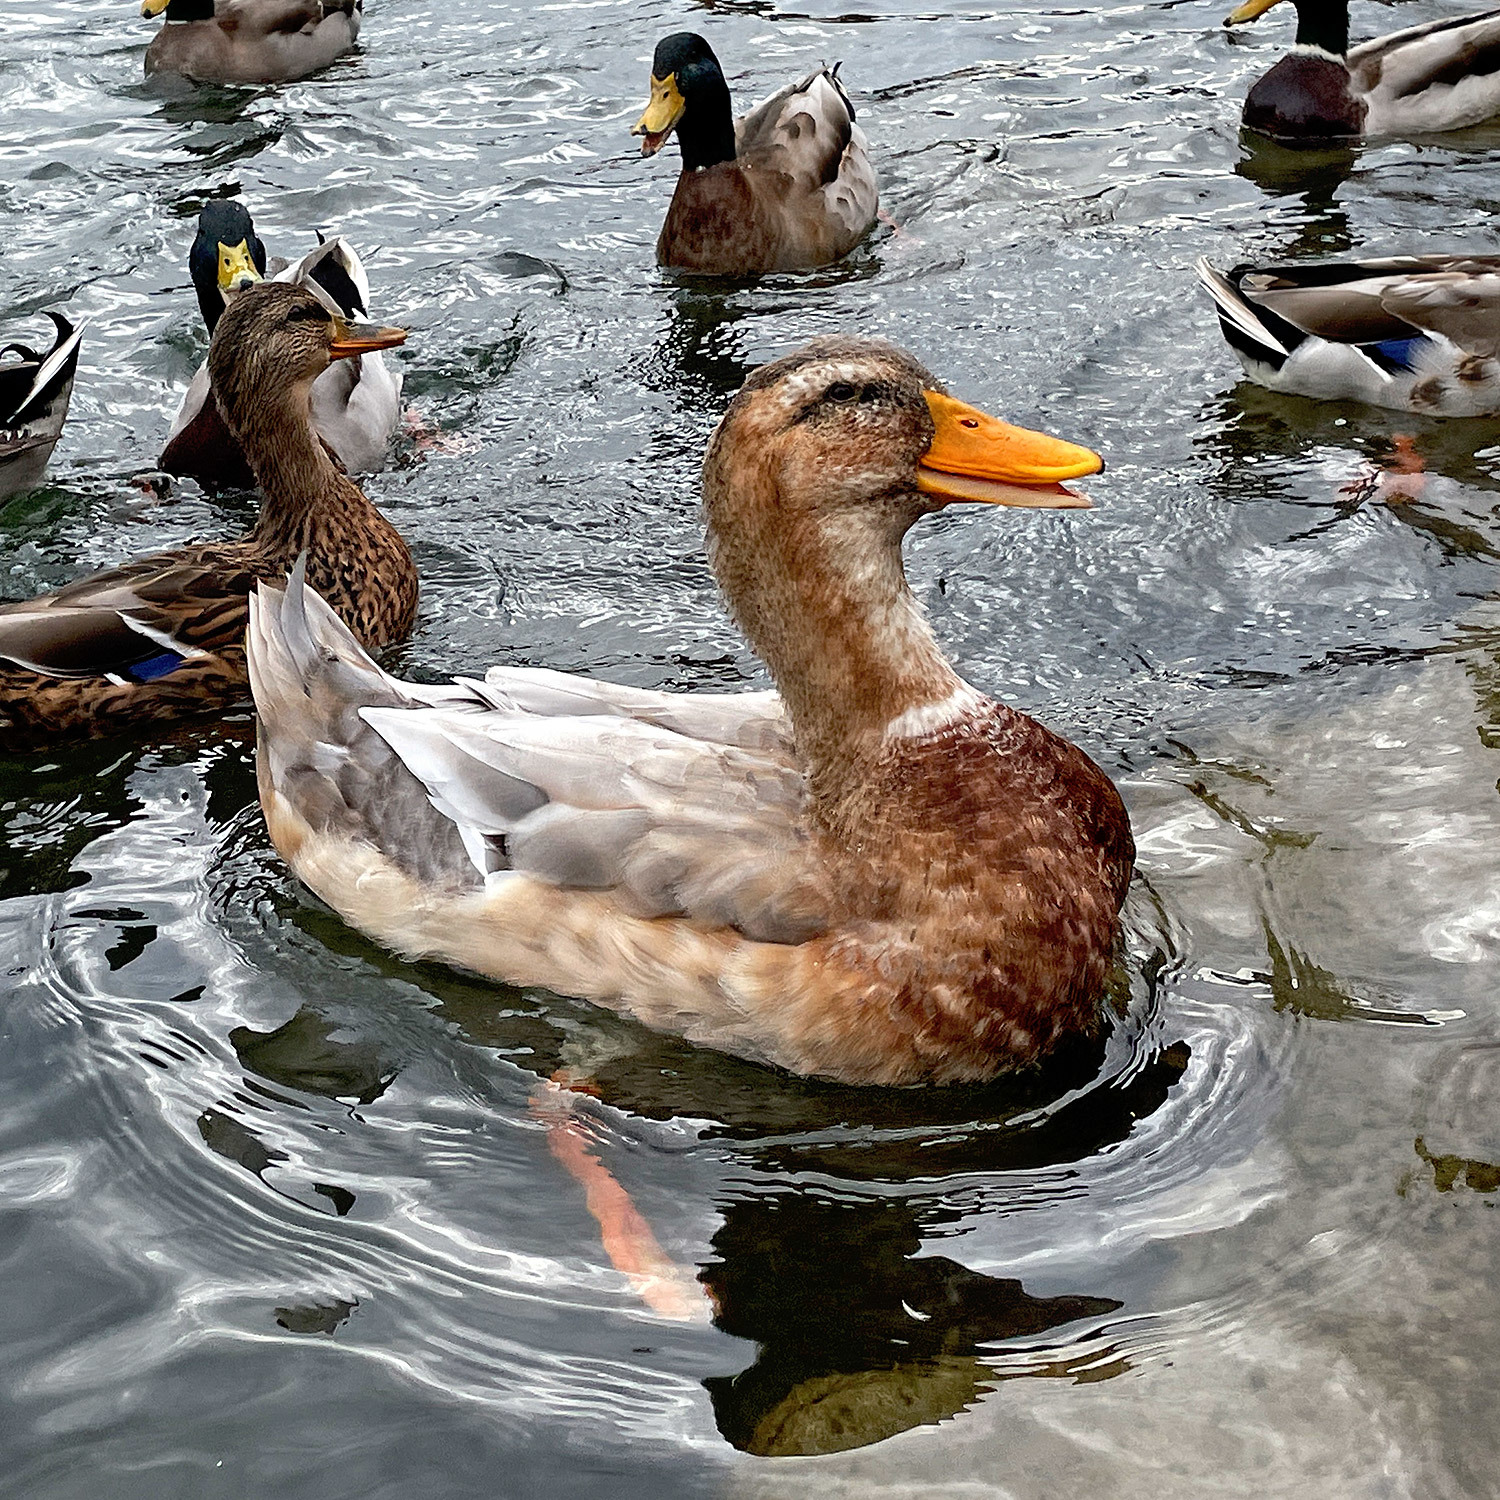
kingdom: Animalia
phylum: Chordata
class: Aves
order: Anseriformes
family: Anatidae
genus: Anas
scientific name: Anas platyrhynchos
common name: Mallard
